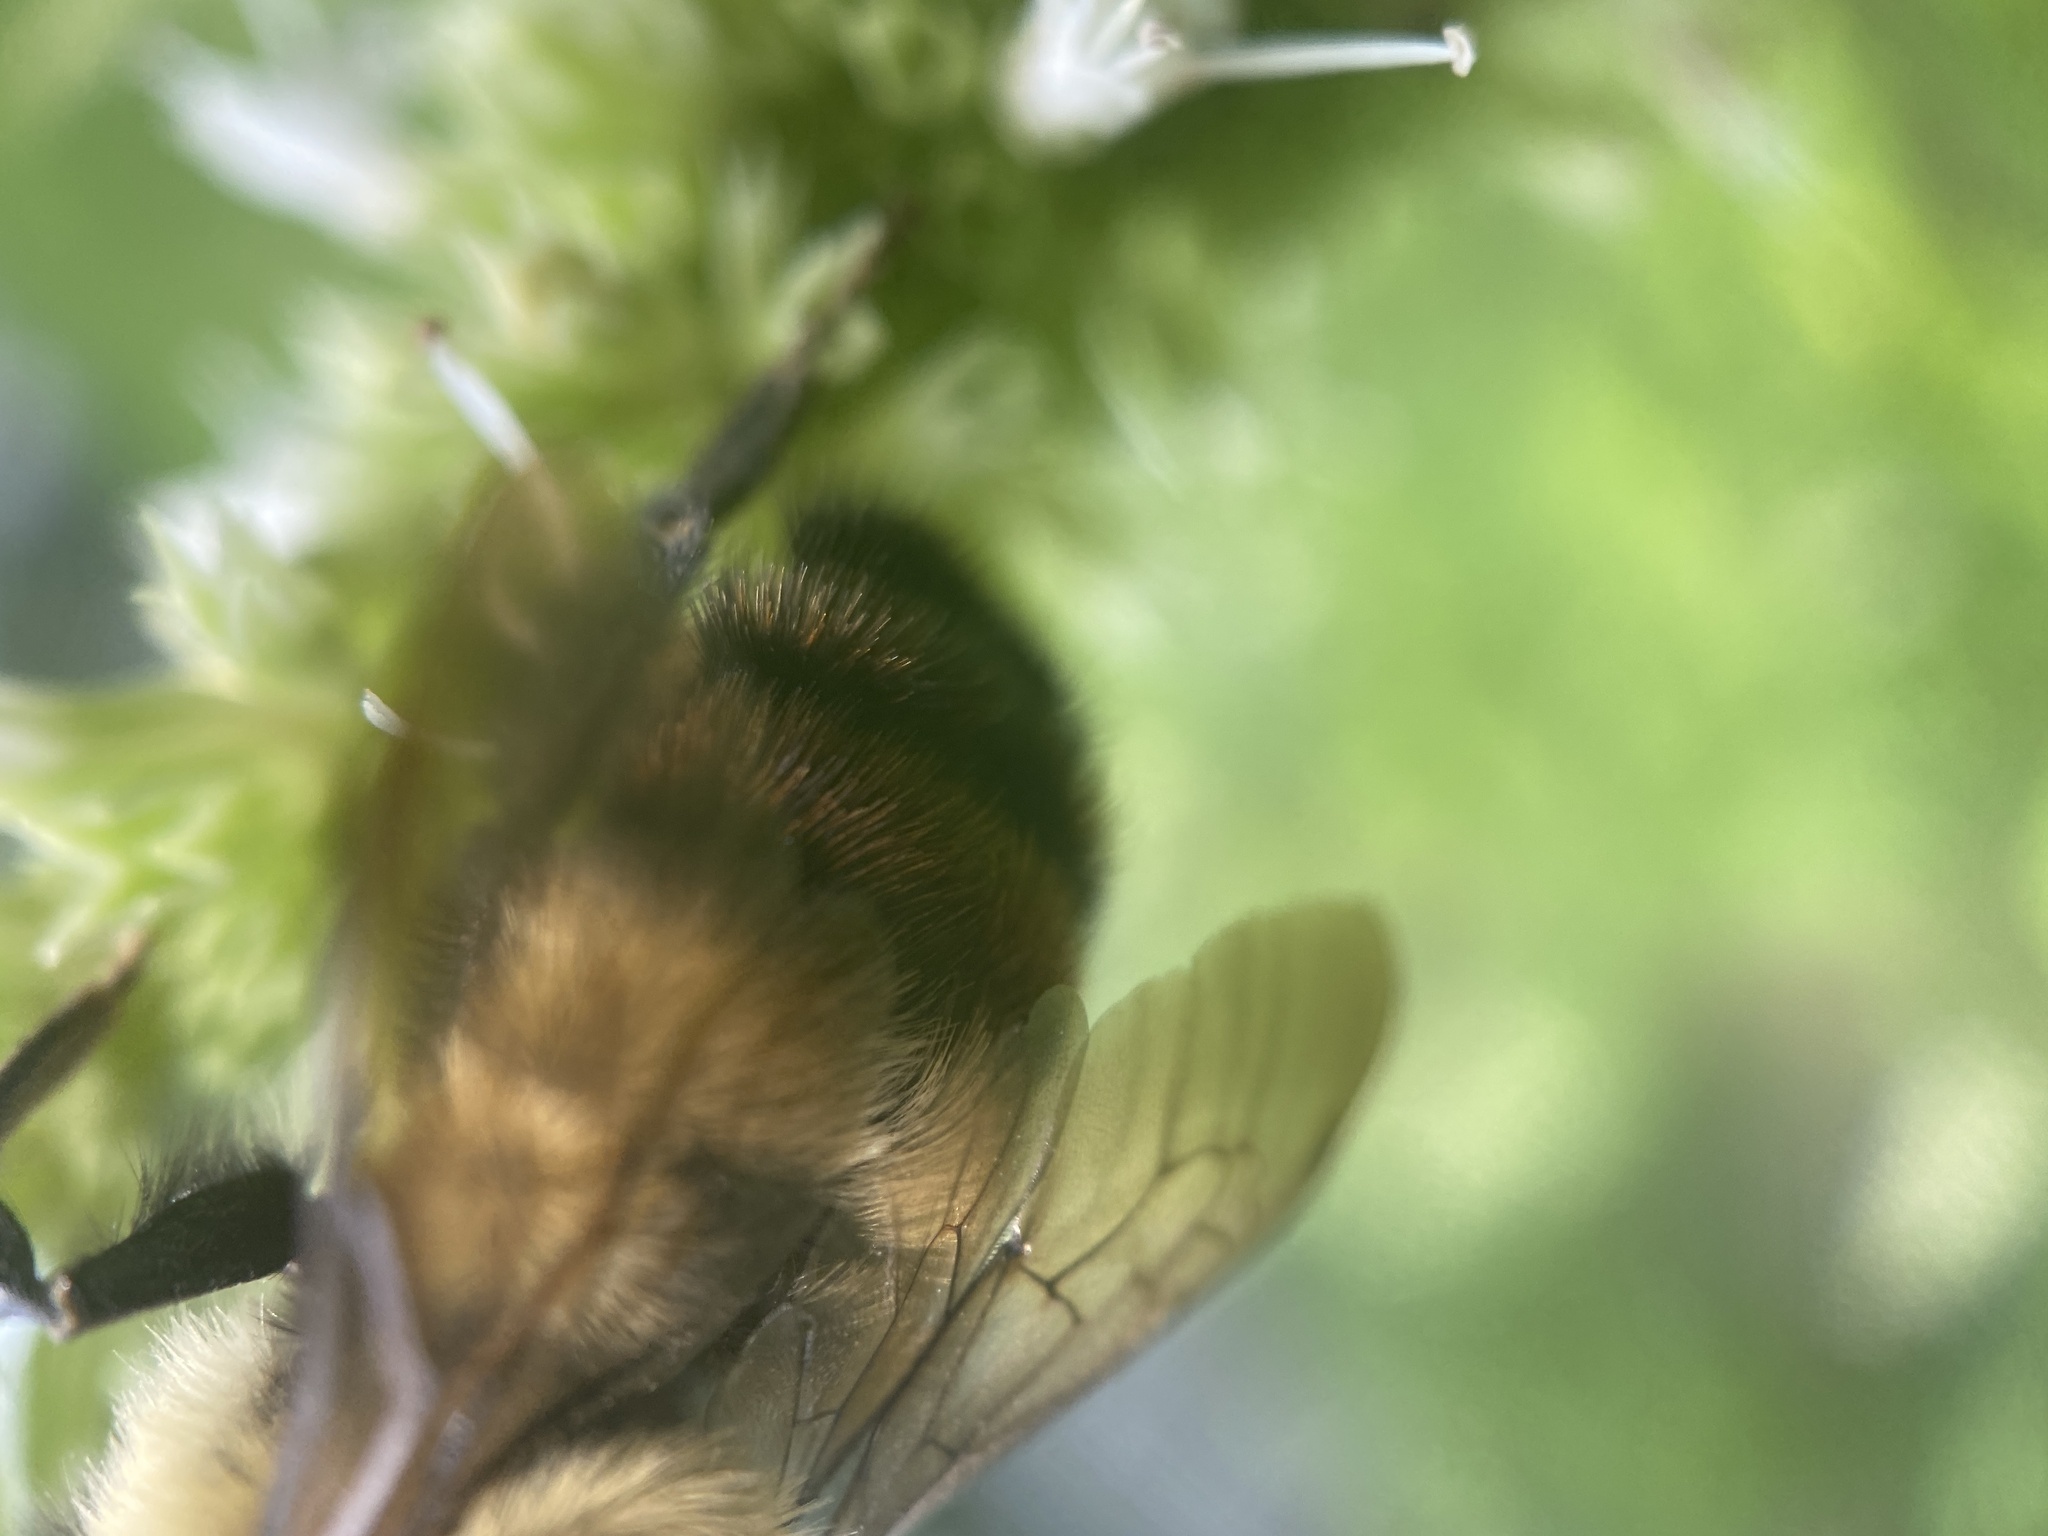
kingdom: Animalia
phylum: Arthropoda
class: Insecta
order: Hymenoptera
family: Apidae
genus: Bombus
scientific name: Bombus rufocinctus
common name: Red-belted bumble bee
